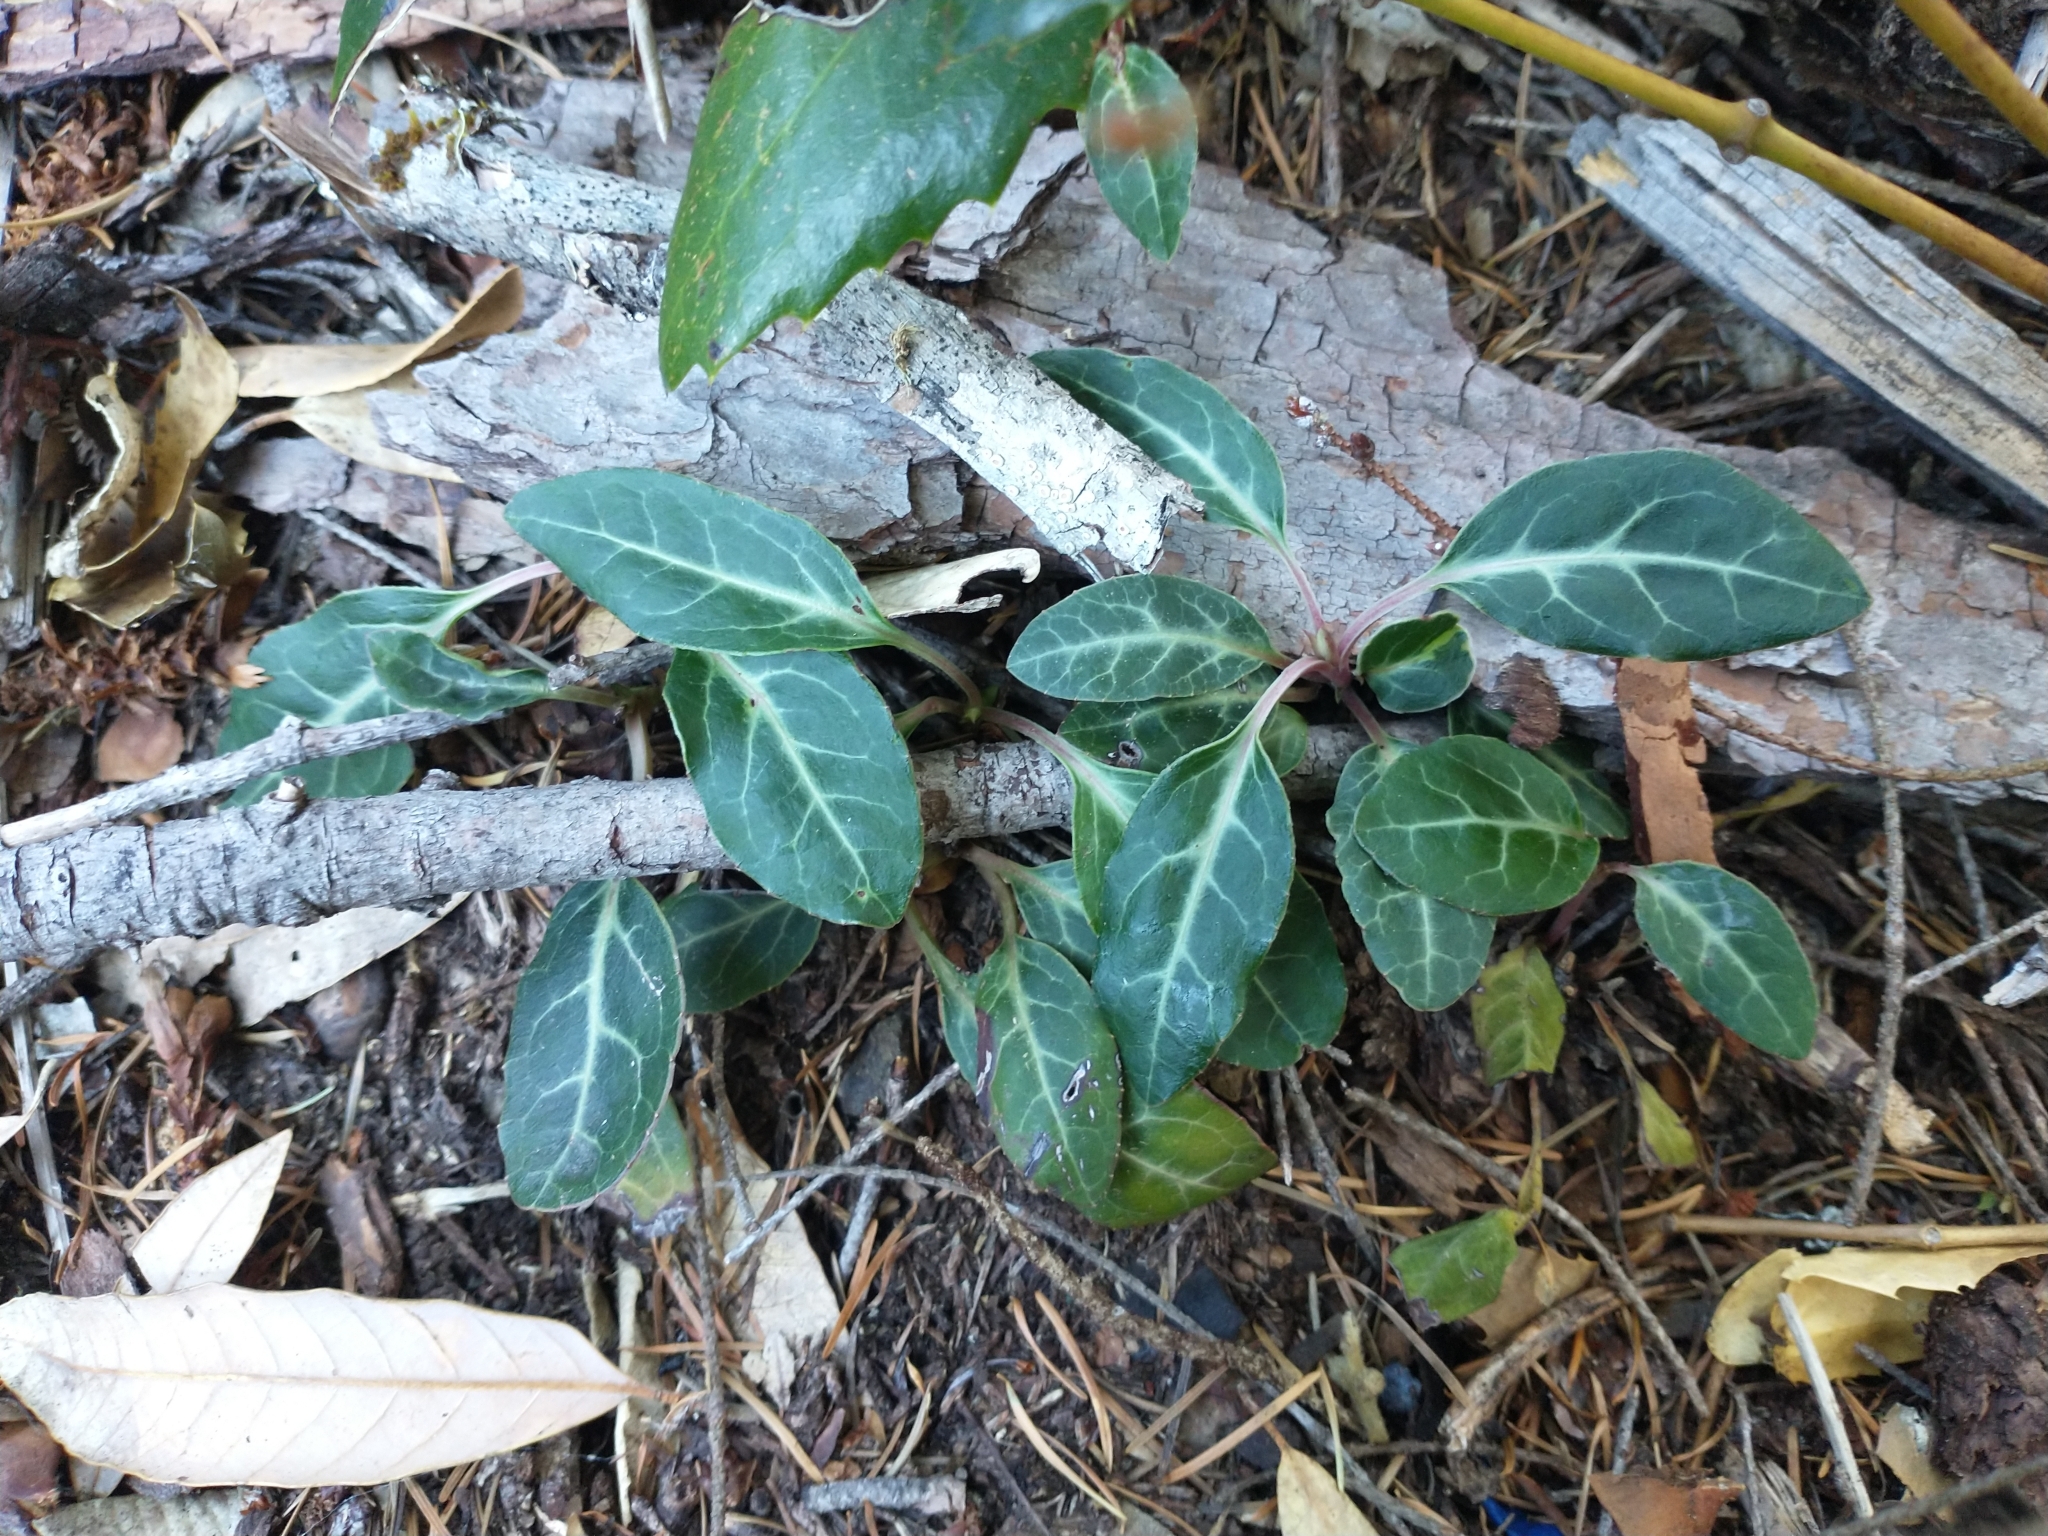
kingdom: Plantae
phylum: Tracheophyta
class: Magnoliopsida
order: Ericales
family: Ericaceae
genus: Pyrola
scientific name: Pyrola picta
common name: White-vein wintergreen
